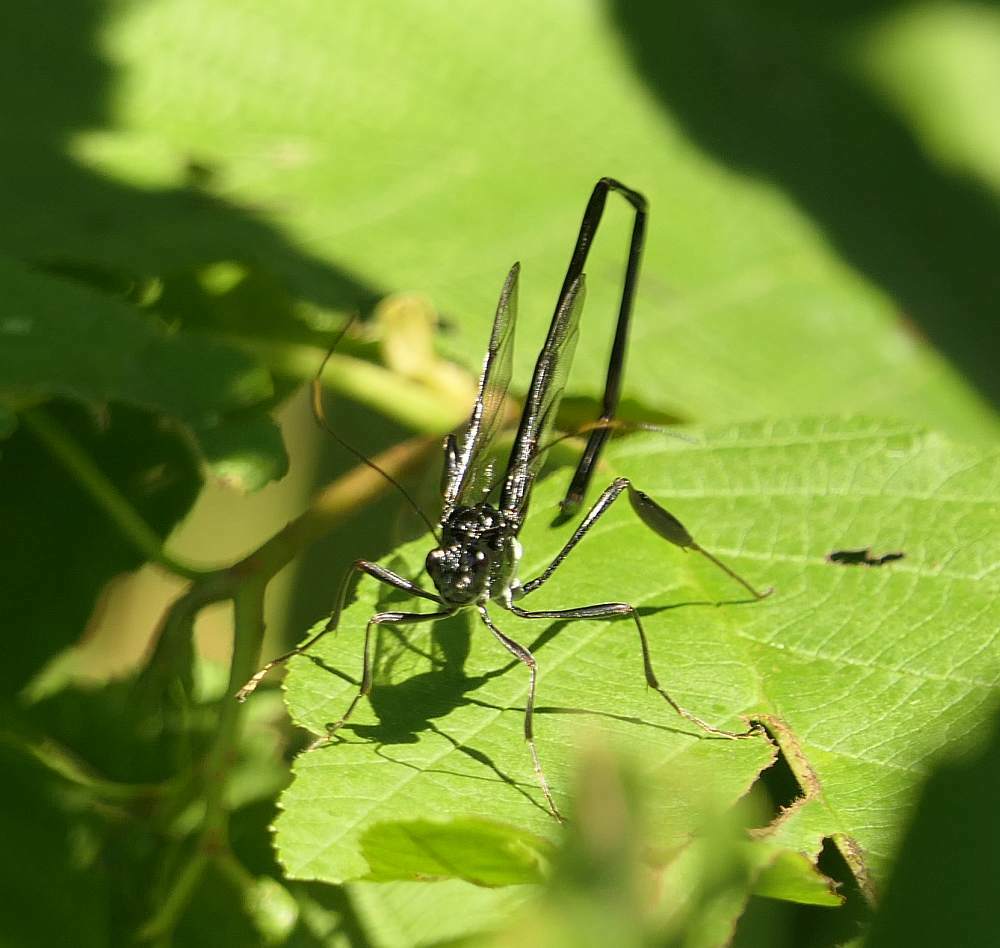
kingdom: Animalia
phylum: Arthropoda
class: Insecta
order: Hymenoptera
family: Pelecinidae
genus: Pelecinus
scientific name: Pelecinus polyturator
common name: American pelecinid wasp
